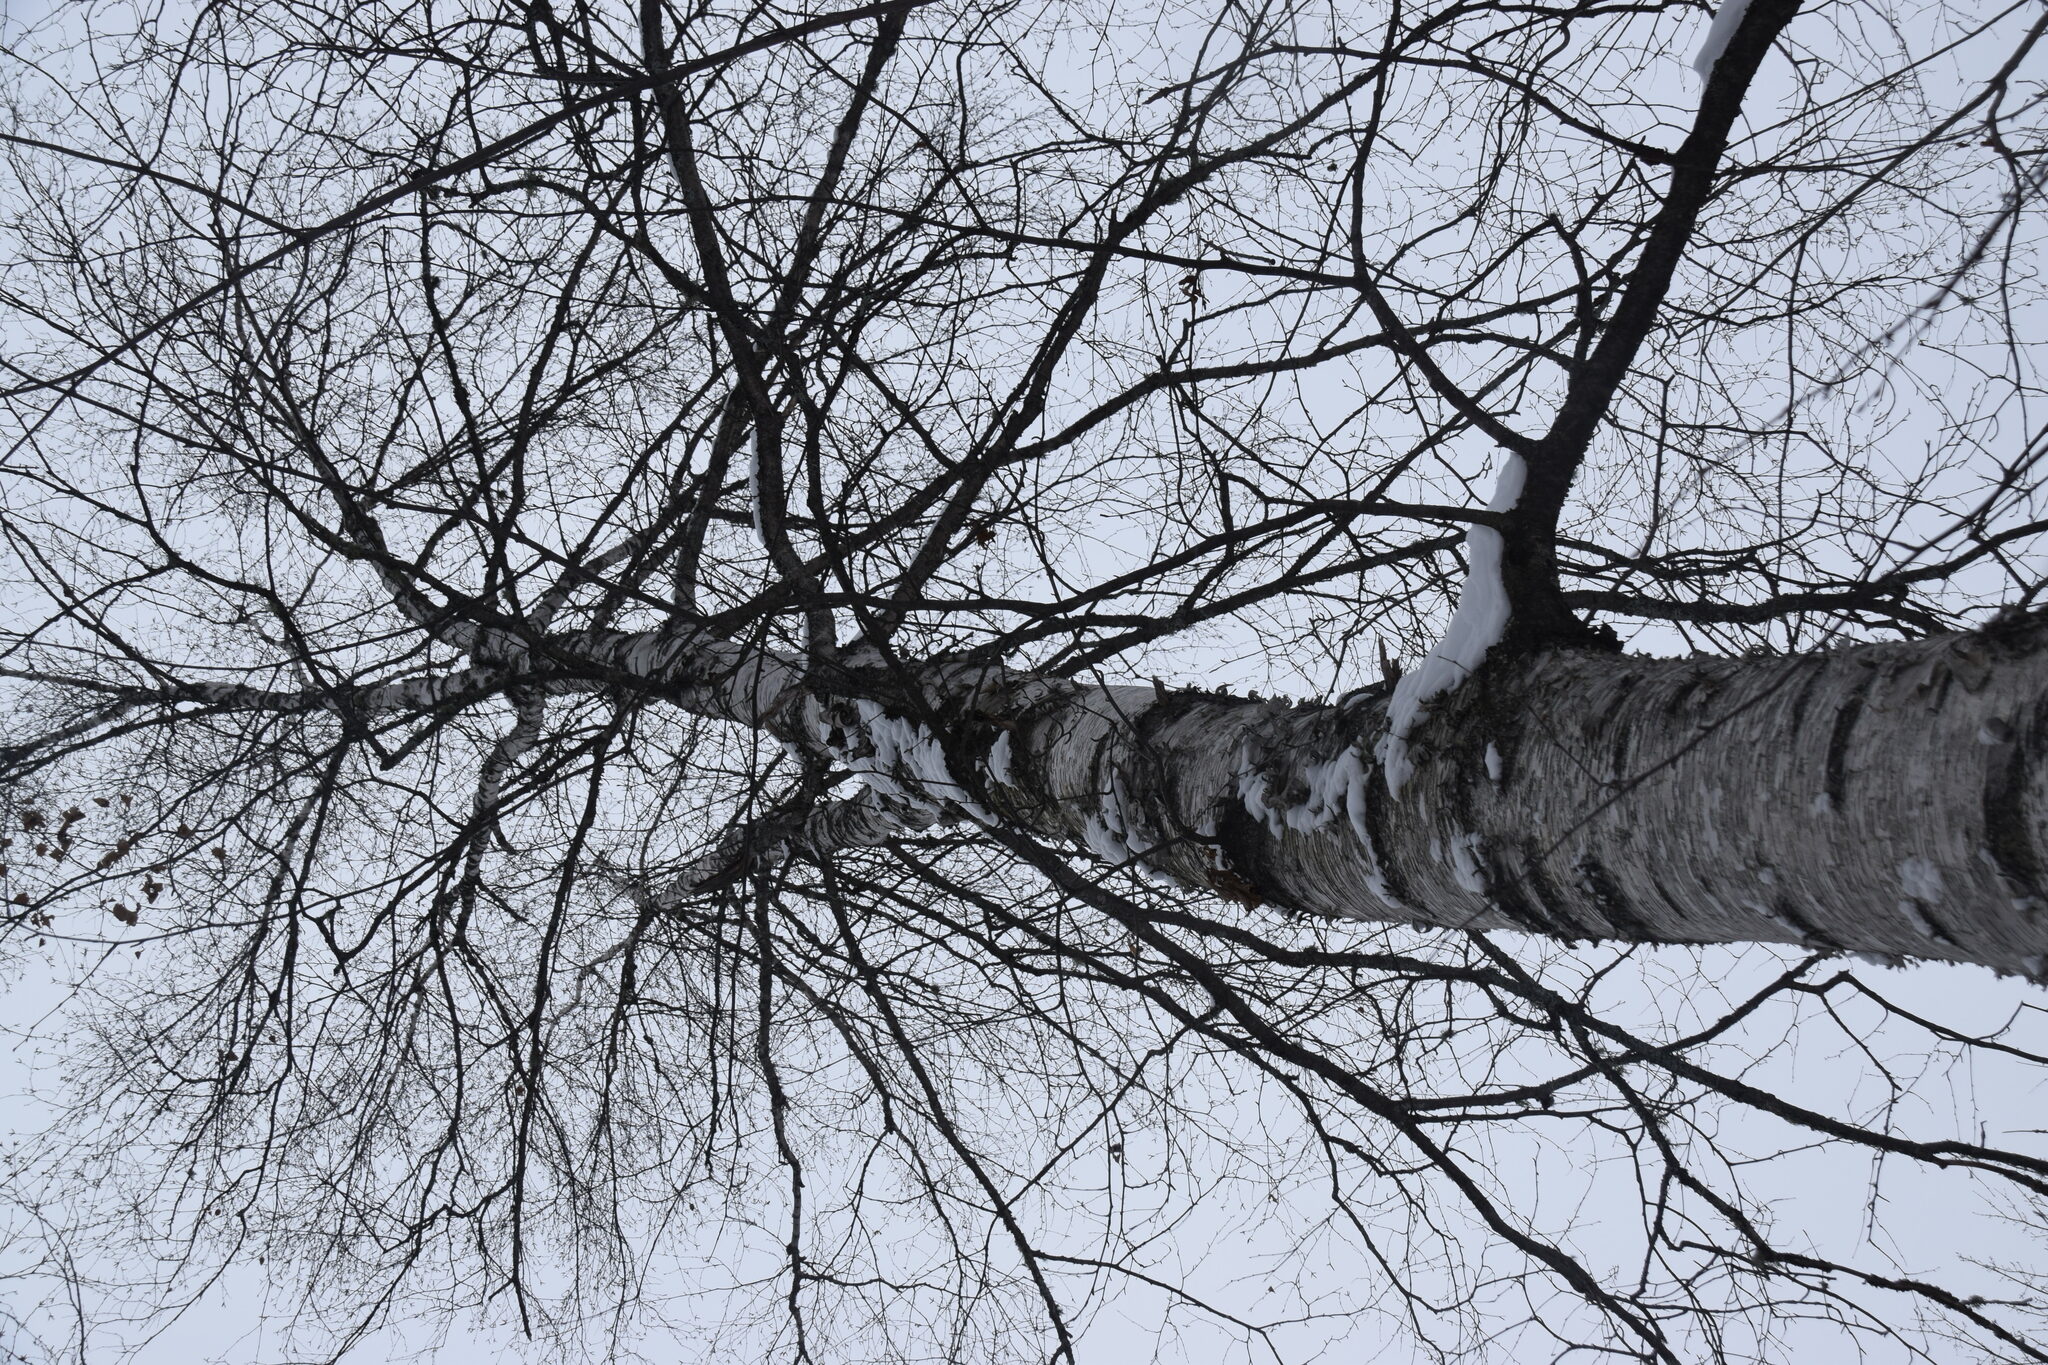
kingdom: Plantae
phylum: Tracheophyta
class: Magnoliopsida
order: Fagales
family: Betulaceae
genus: Betula
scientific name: Betula papyrifera
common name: Paper birch
